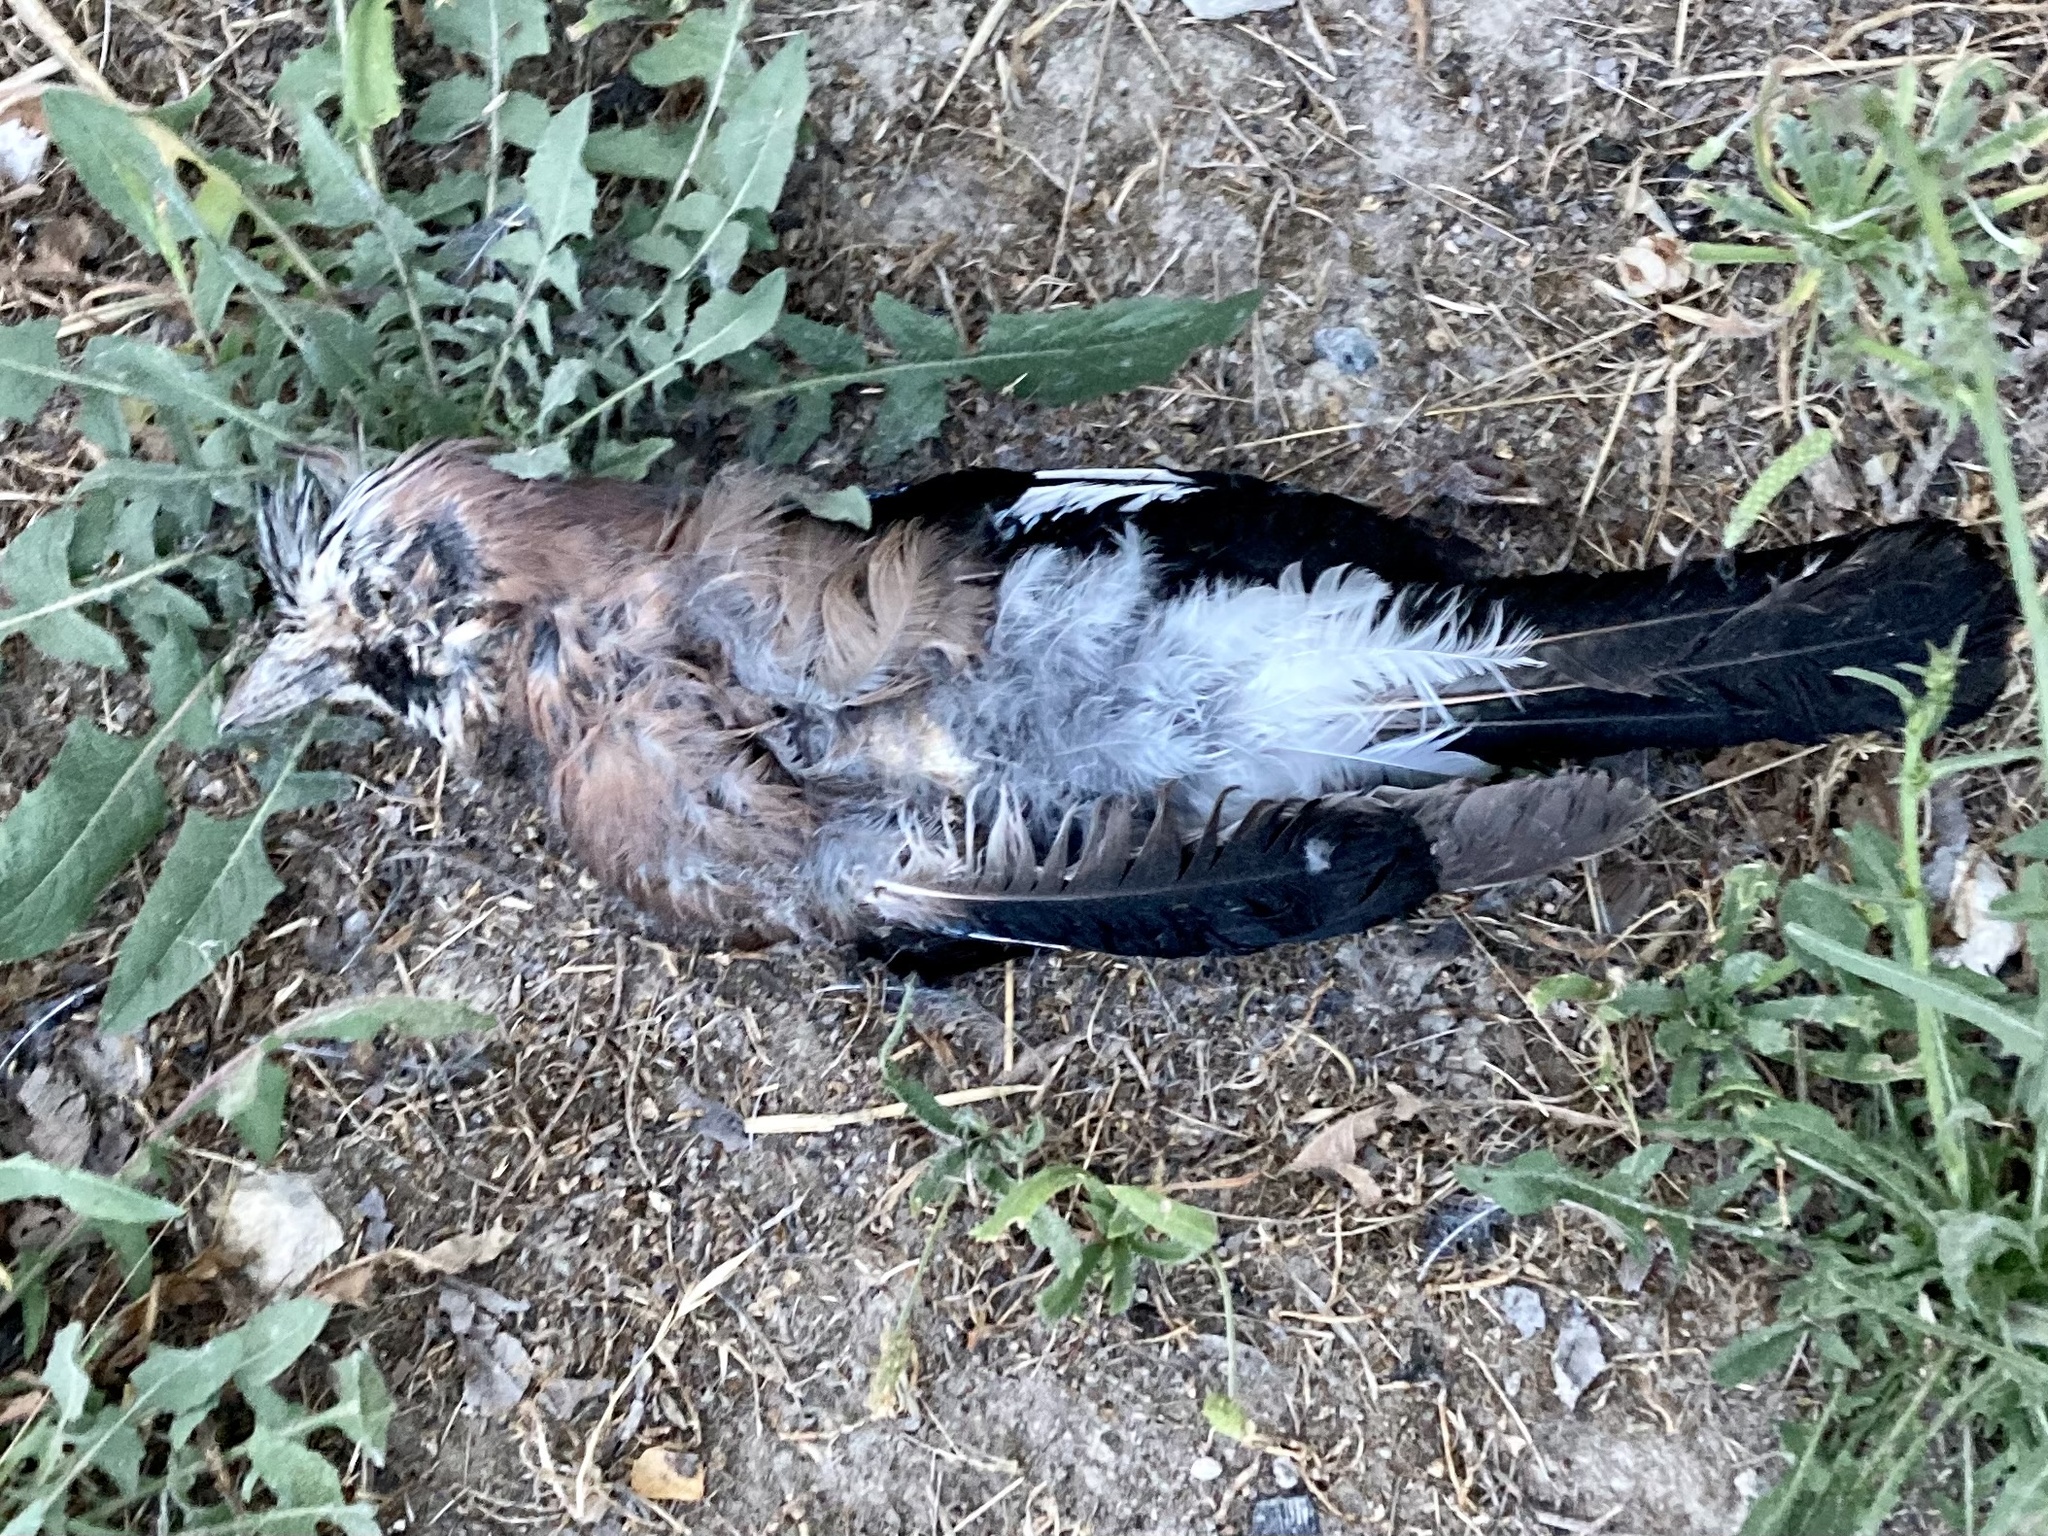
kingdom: Animalia
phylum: Chordata
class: Aves
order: Passeriformes
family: Corvidae
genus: Garrulus
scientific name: Garrulus glandarius
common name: Eurasian jay
